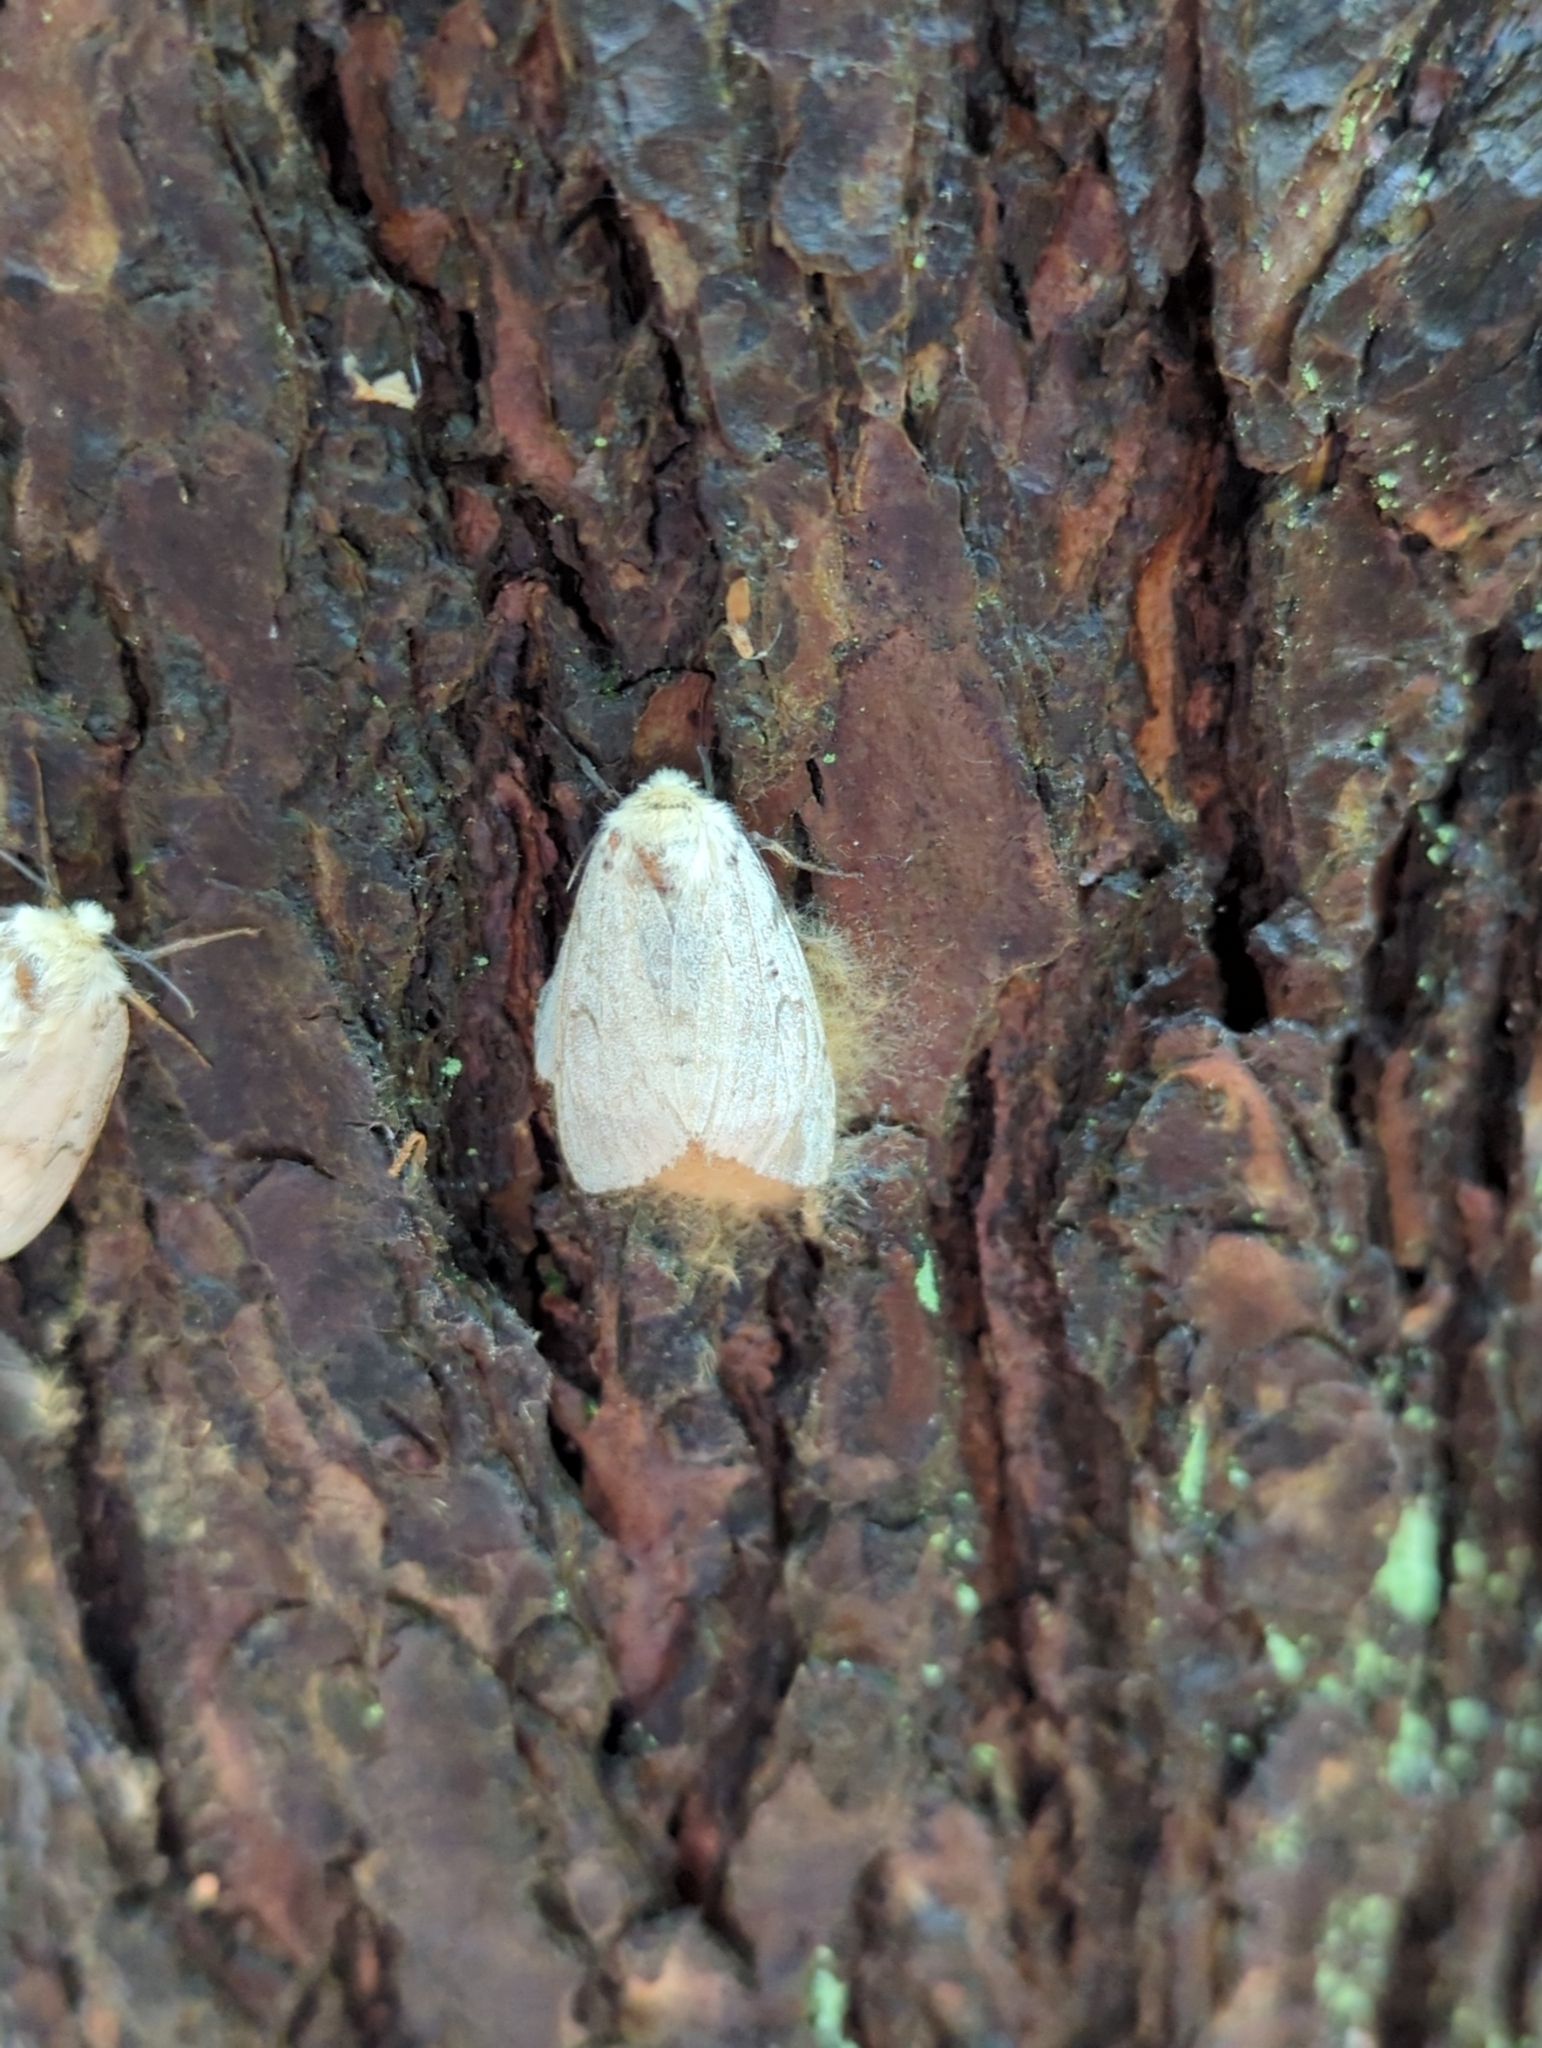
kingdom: Animalia
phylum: Arthropoda
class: Insecta
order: Lepidoptera
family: Erebidae
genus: Lymantria
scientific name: Lymantria dispar
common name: Gypsy moth
